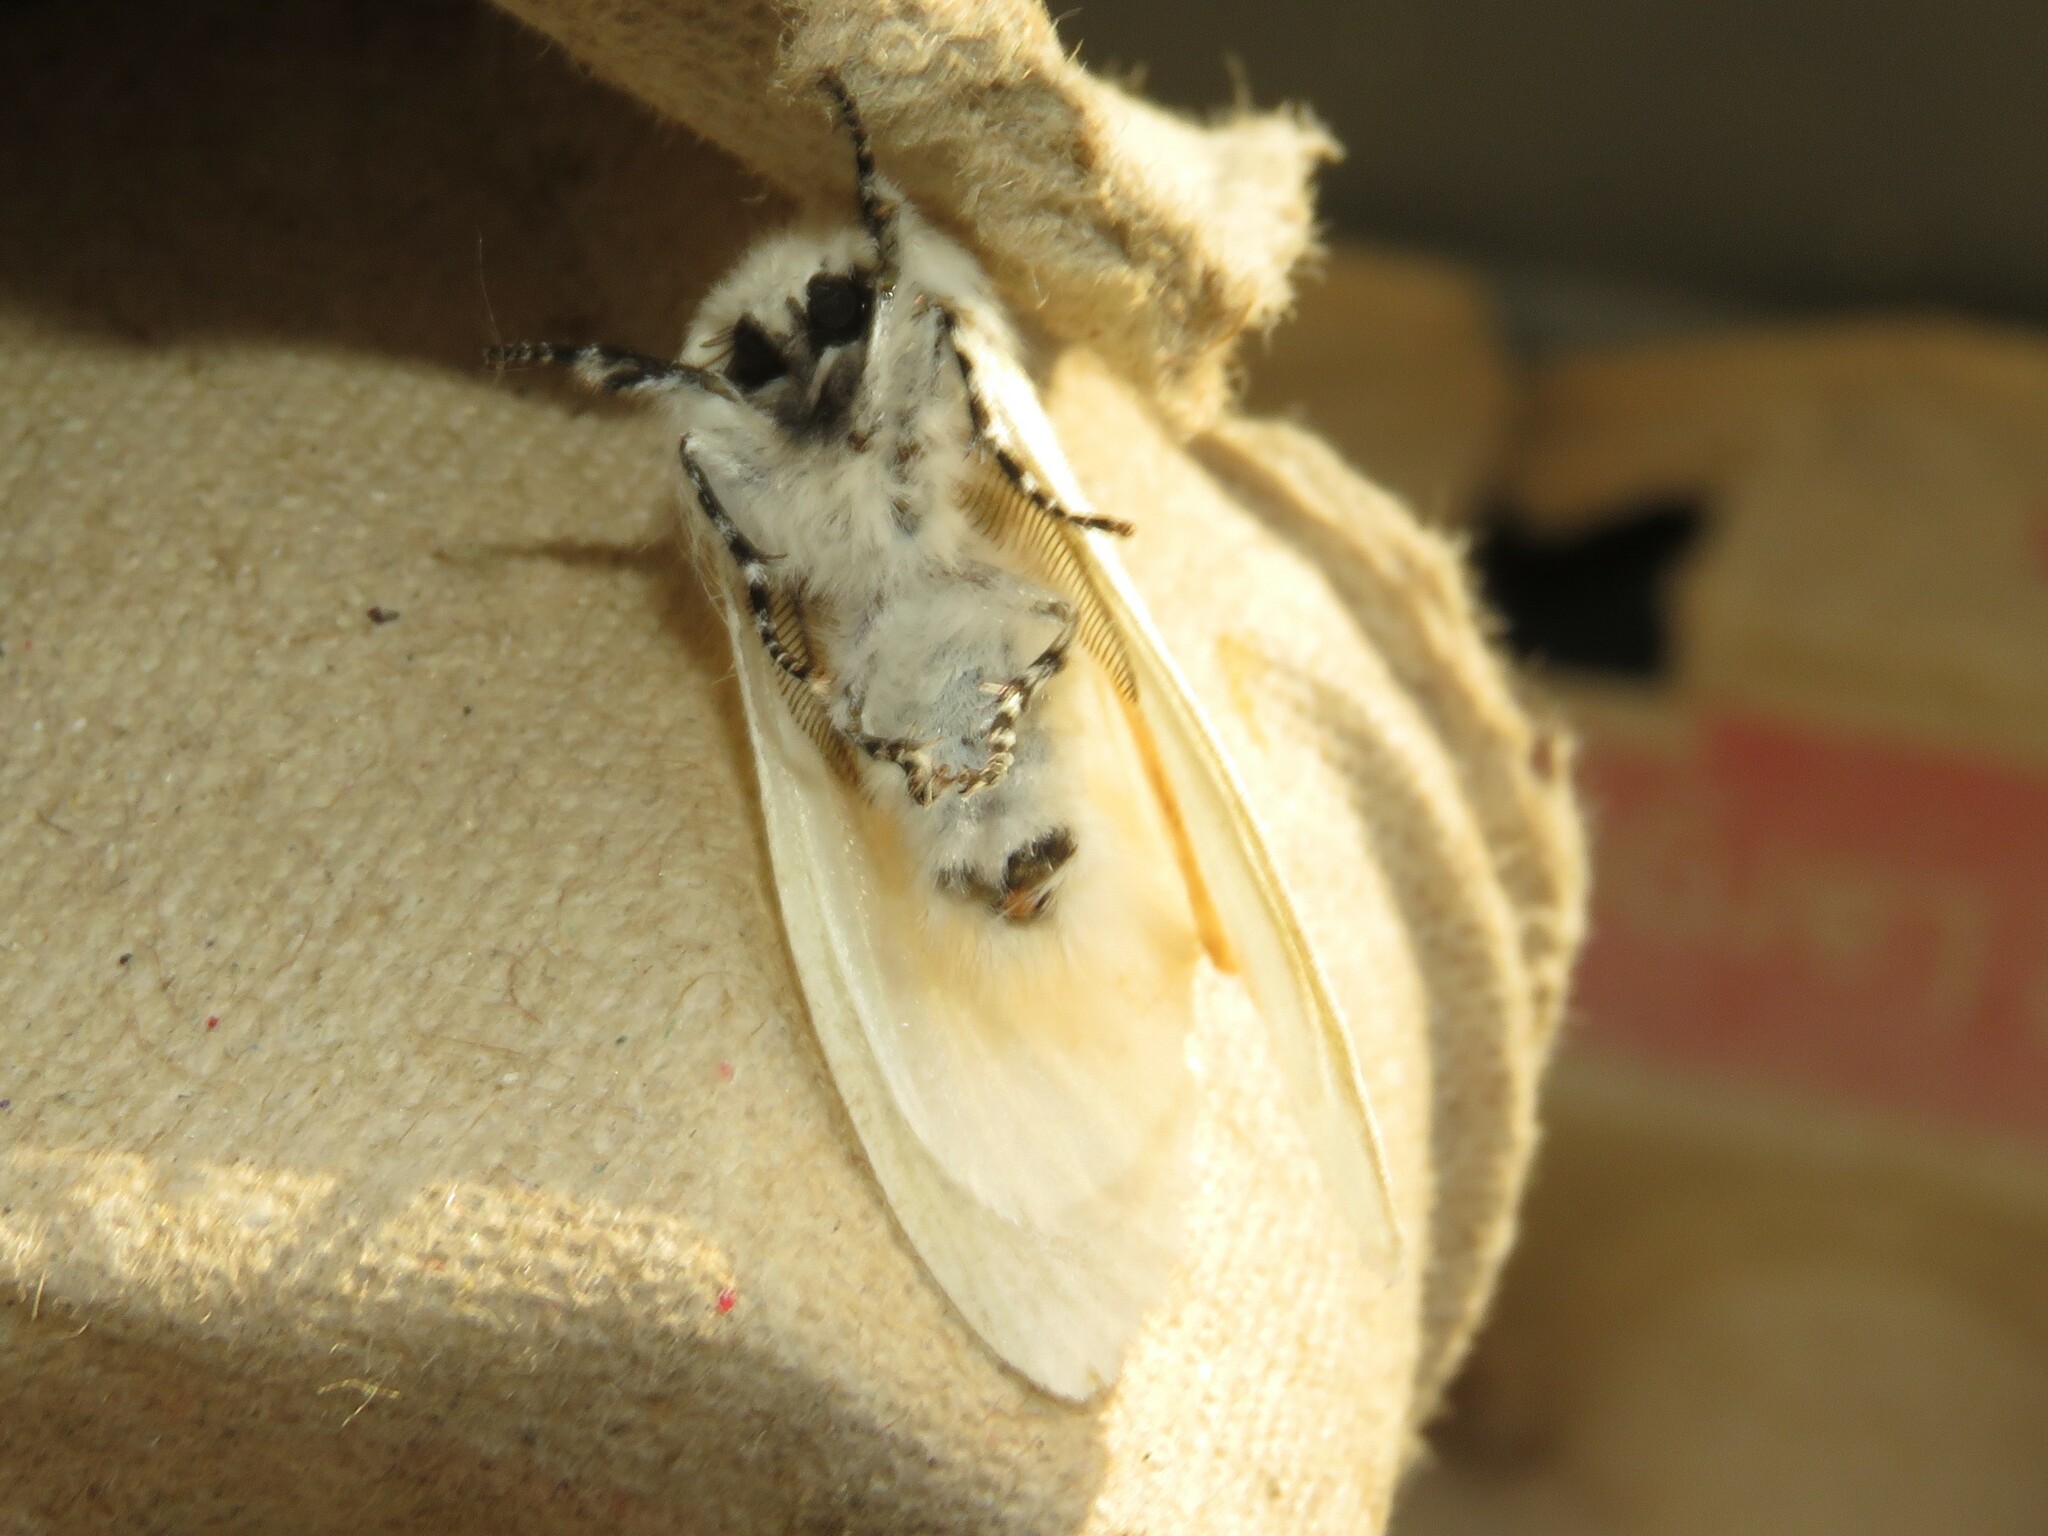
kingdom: Animalia
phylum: Arthropoda
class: Insecta
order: Lepidoptera
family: Erebidae
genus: Leucoma
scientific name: Leucoma salicis
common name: White satin moth
